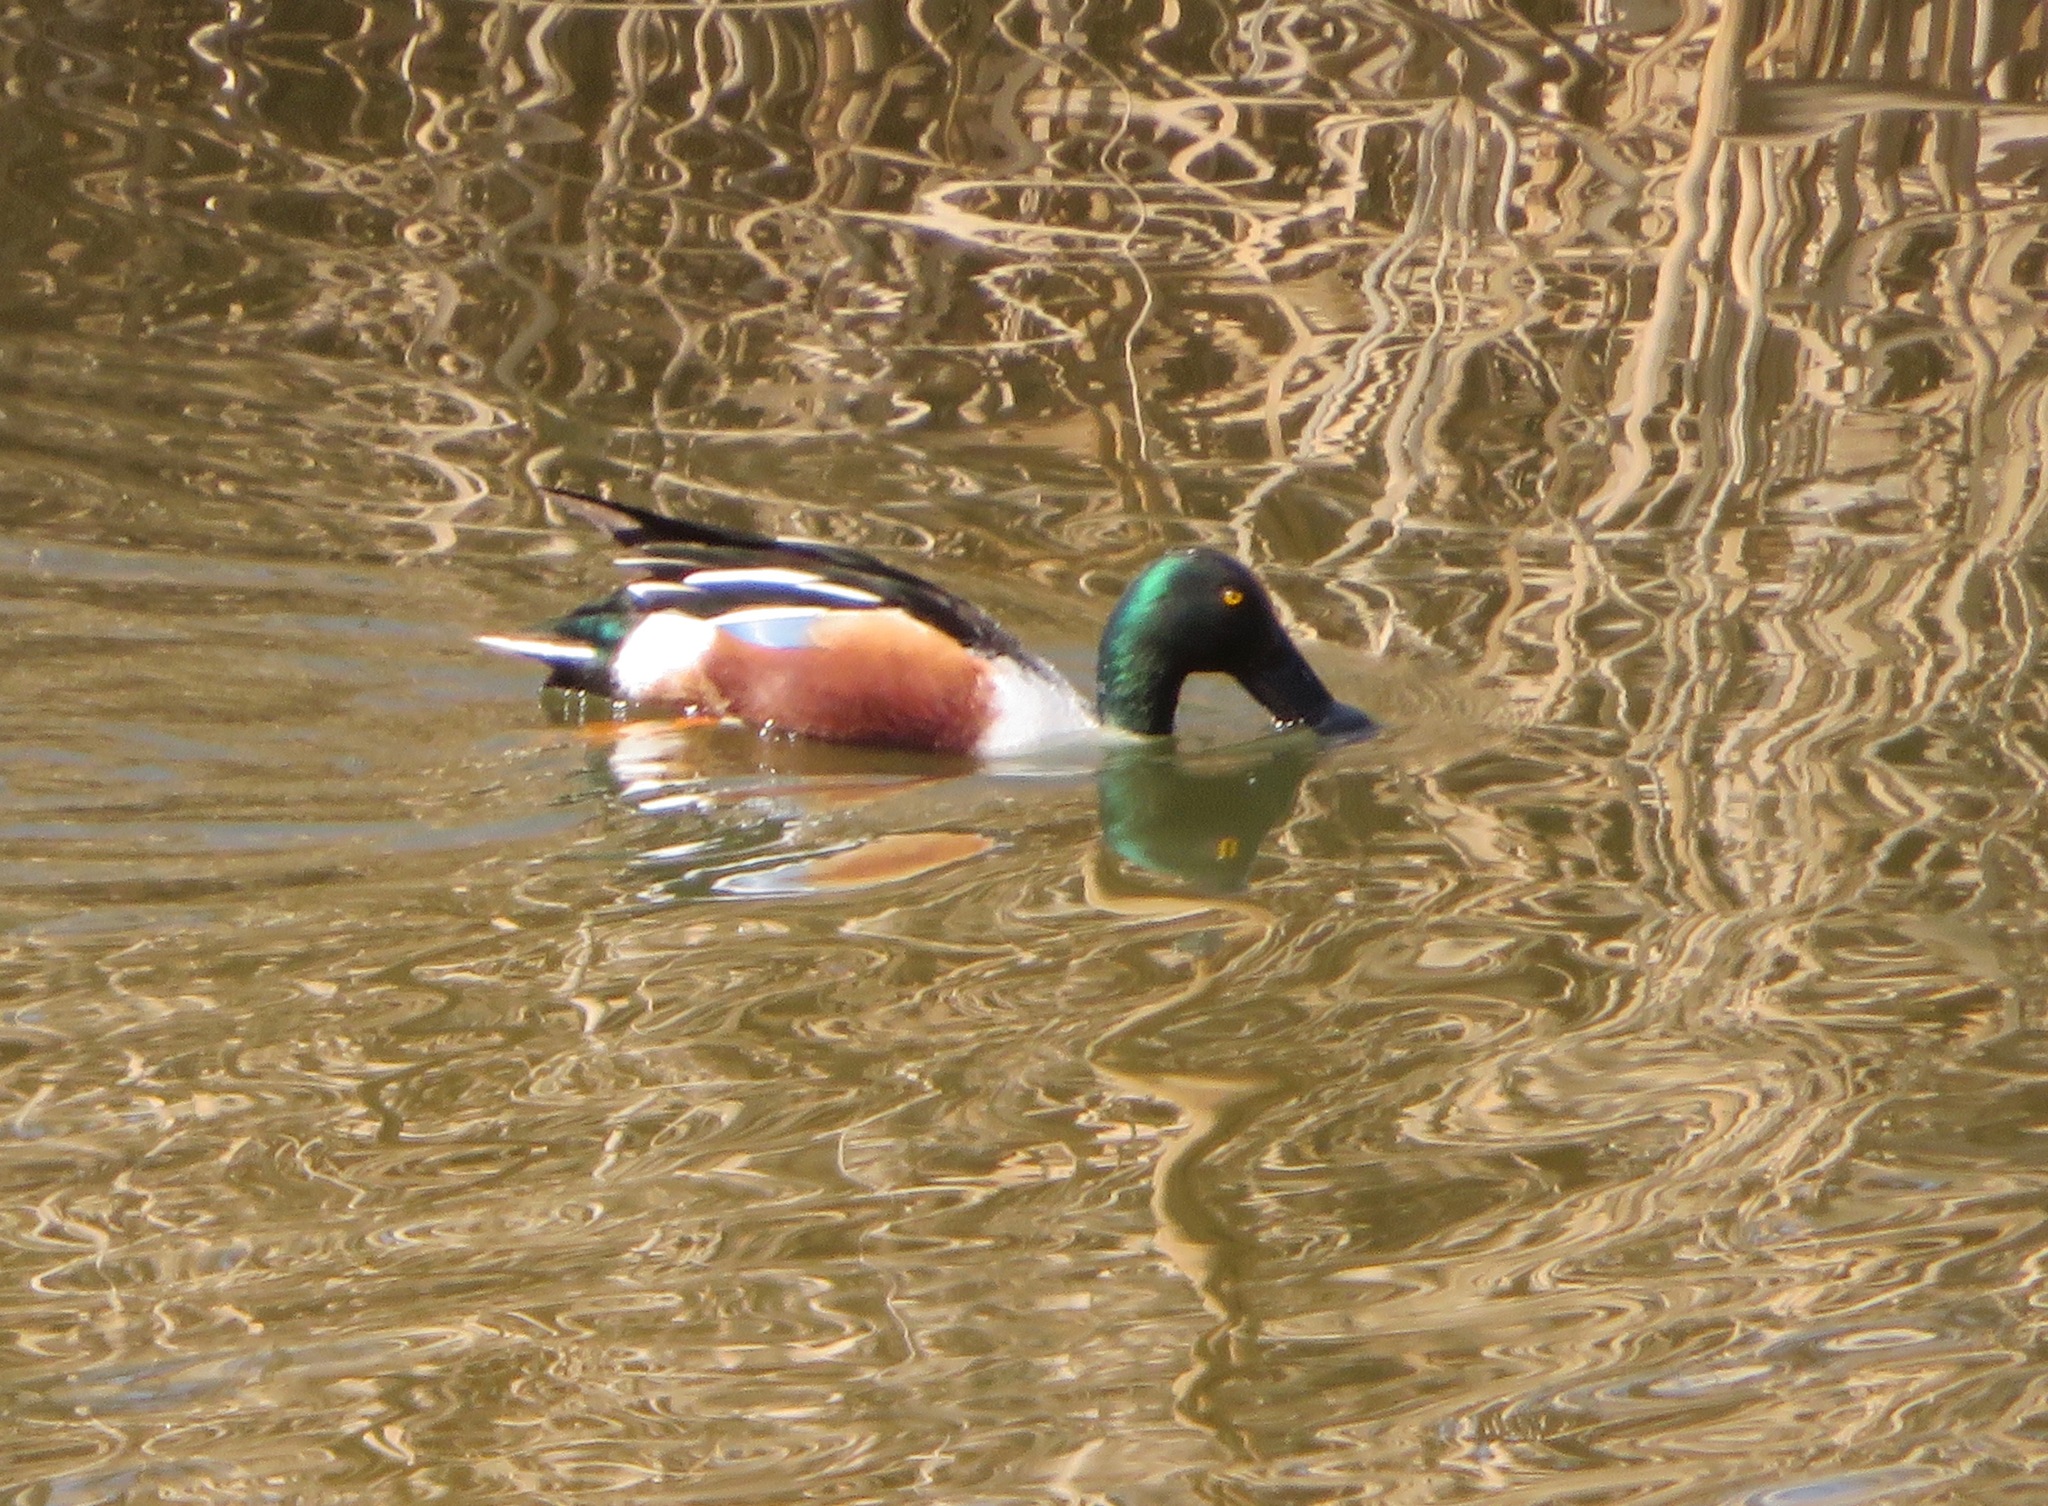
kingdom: Animalia
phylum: Chordata
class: Aves
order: Anseriformes
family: Anatidae
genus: Spatula
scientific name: Spatula clypeata
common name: Northern shoveler
